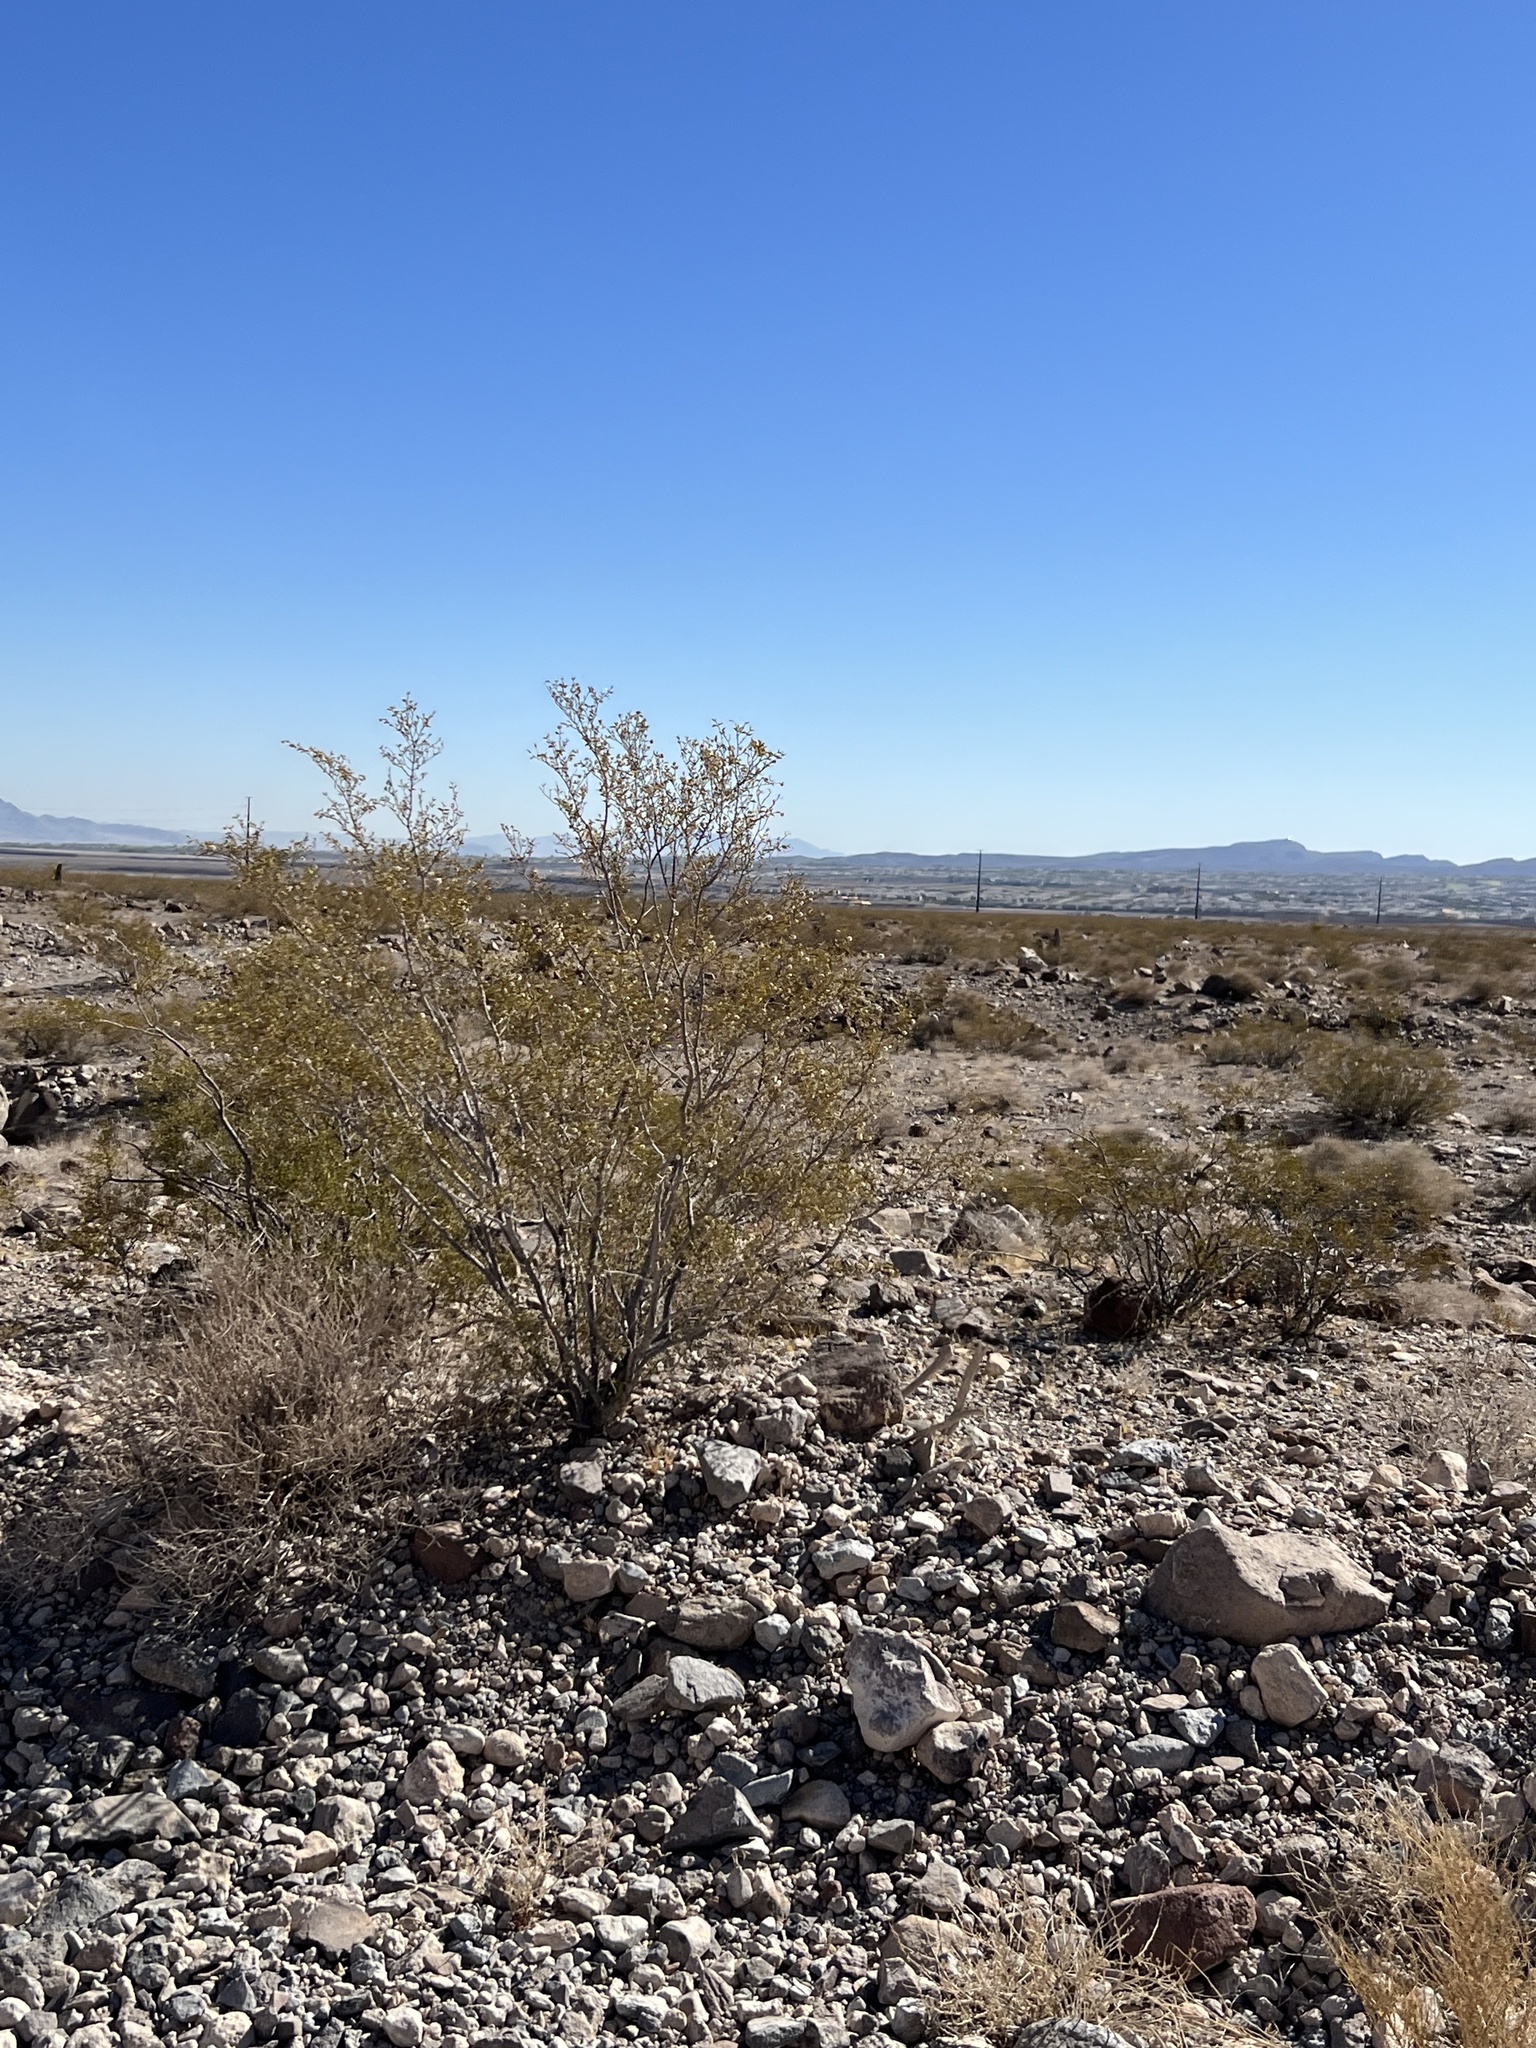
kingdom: Plantae
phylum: Tracheophyta
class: Magnoliopsida
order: Zygophyllales
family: Zygophyllaceae
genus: Larrea
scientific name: Larrea tridentata
